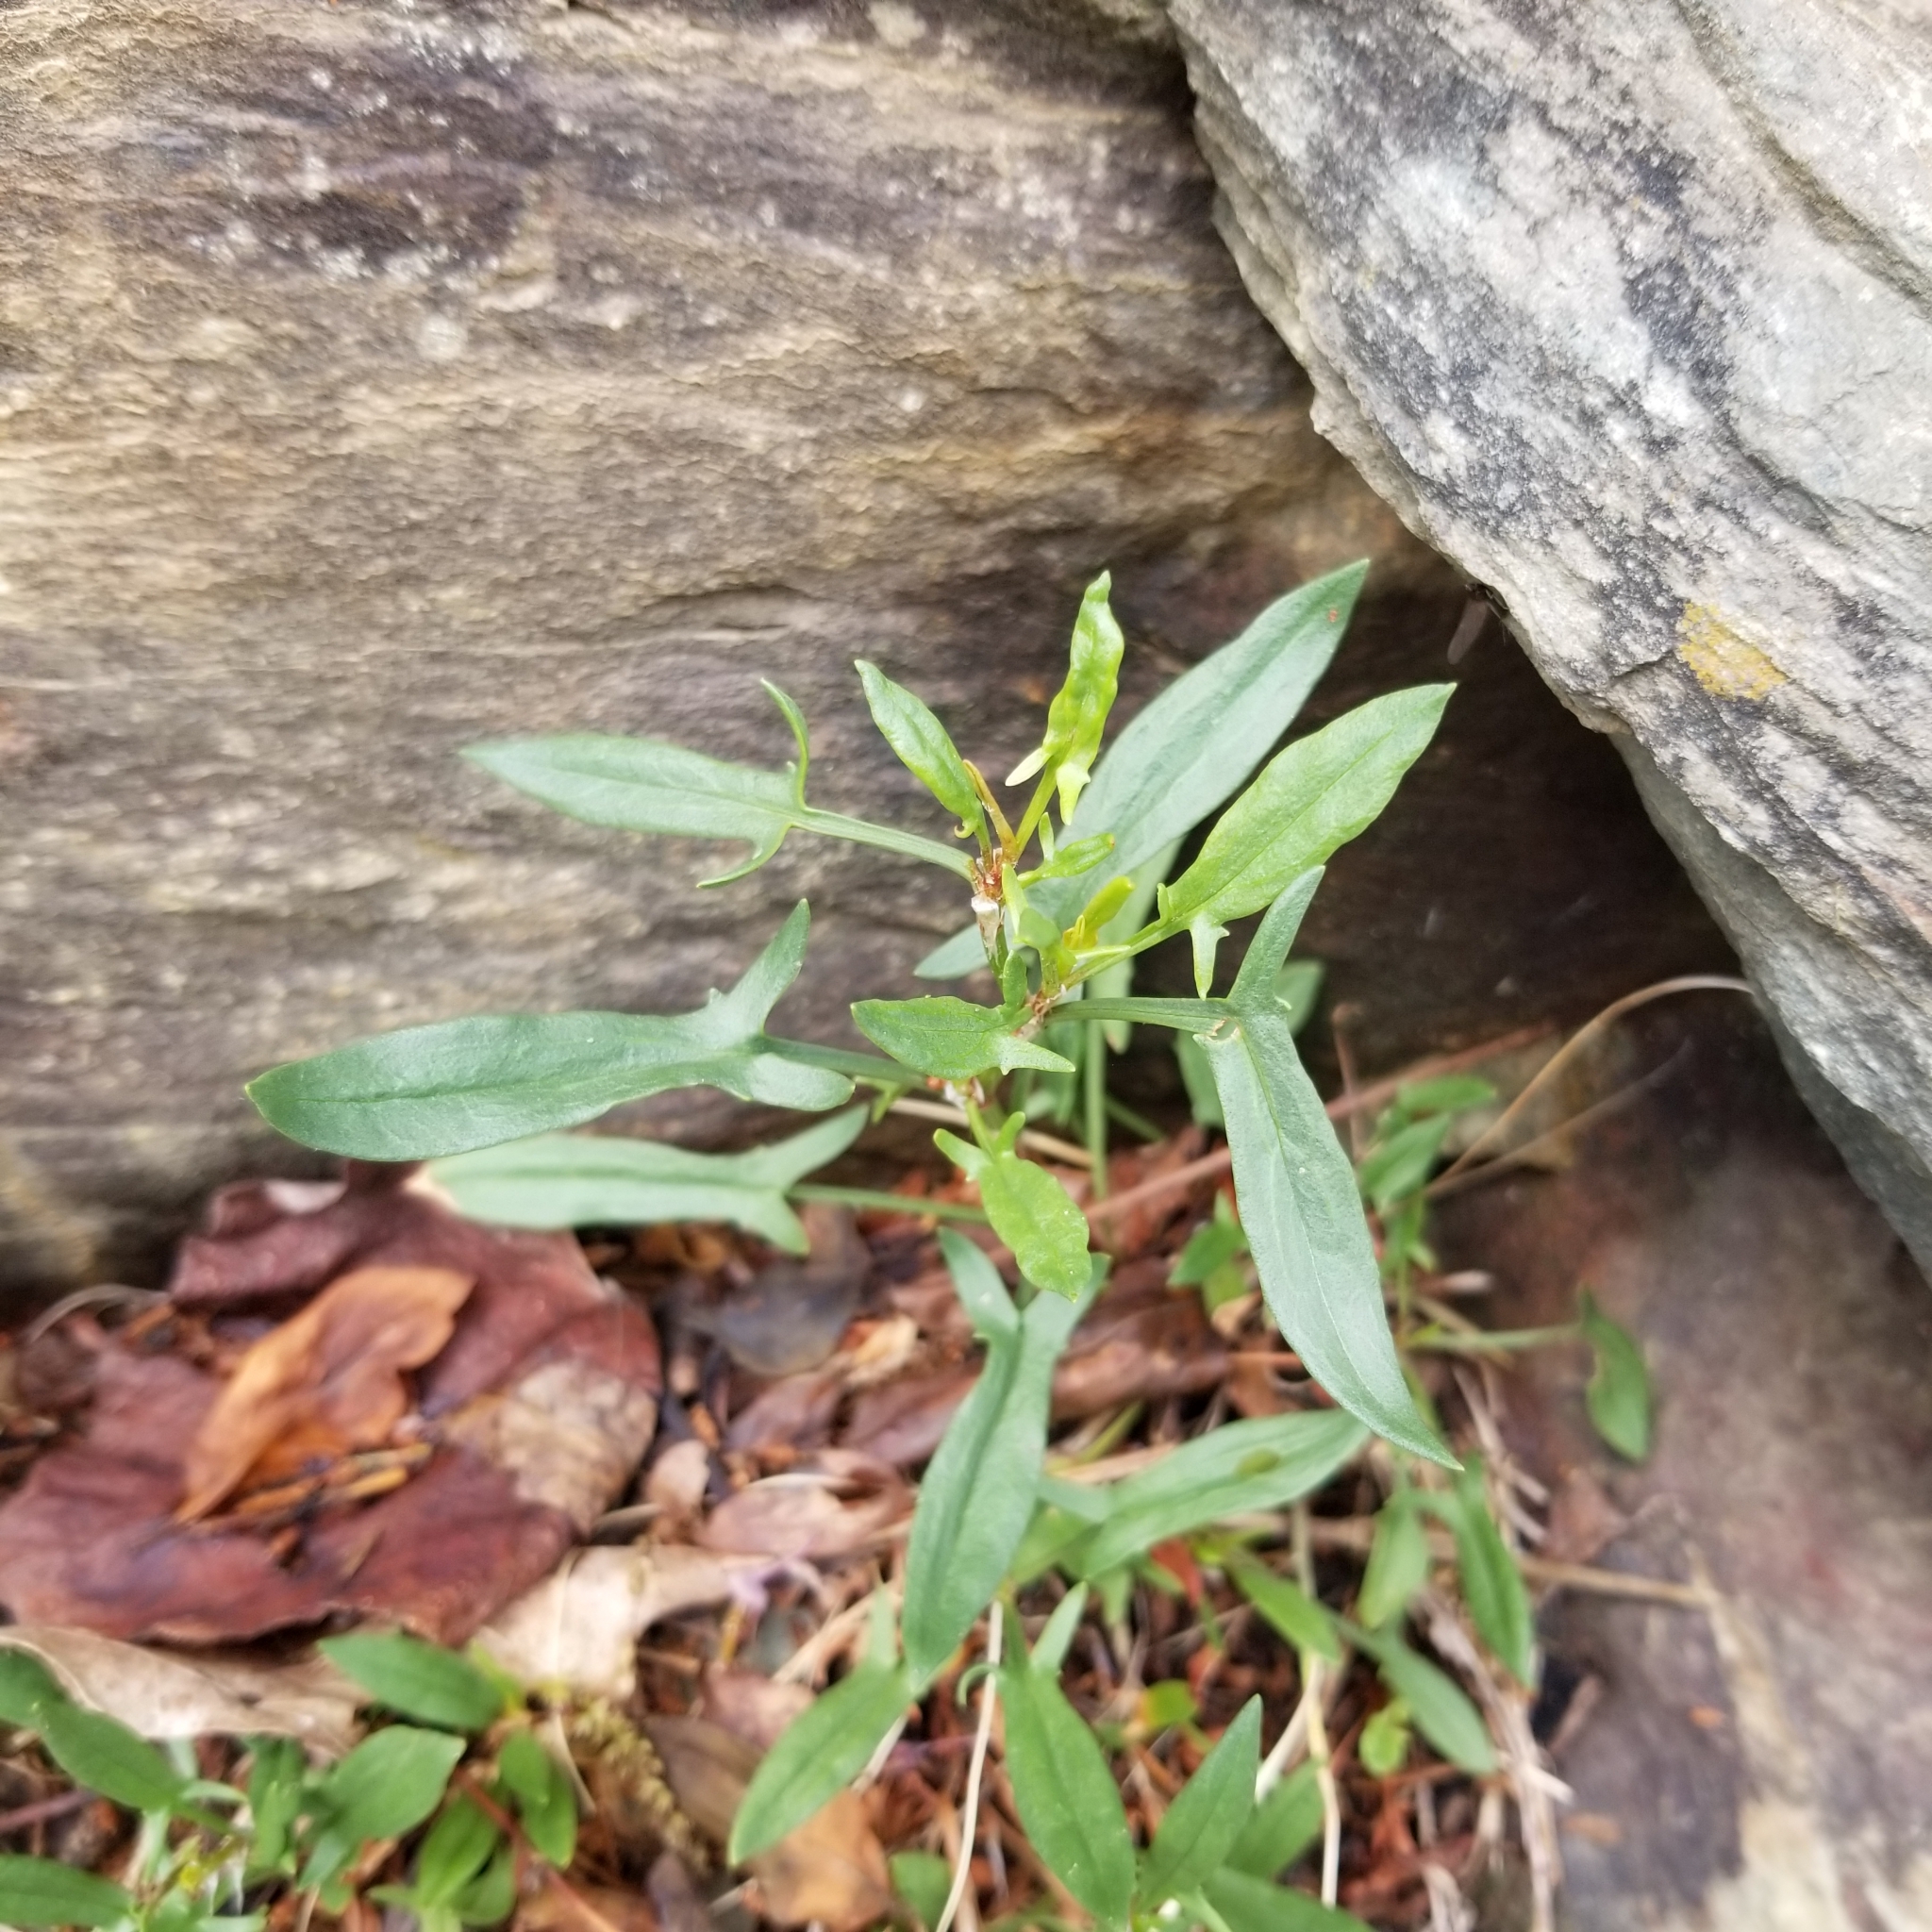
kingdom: Plantae
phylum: Tracheophyta
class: Magnoliopsida
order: Caryophyllales
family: Polygonaceae
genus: Rumex
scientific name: Rumex acetosella
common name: Common sheep sorrel
